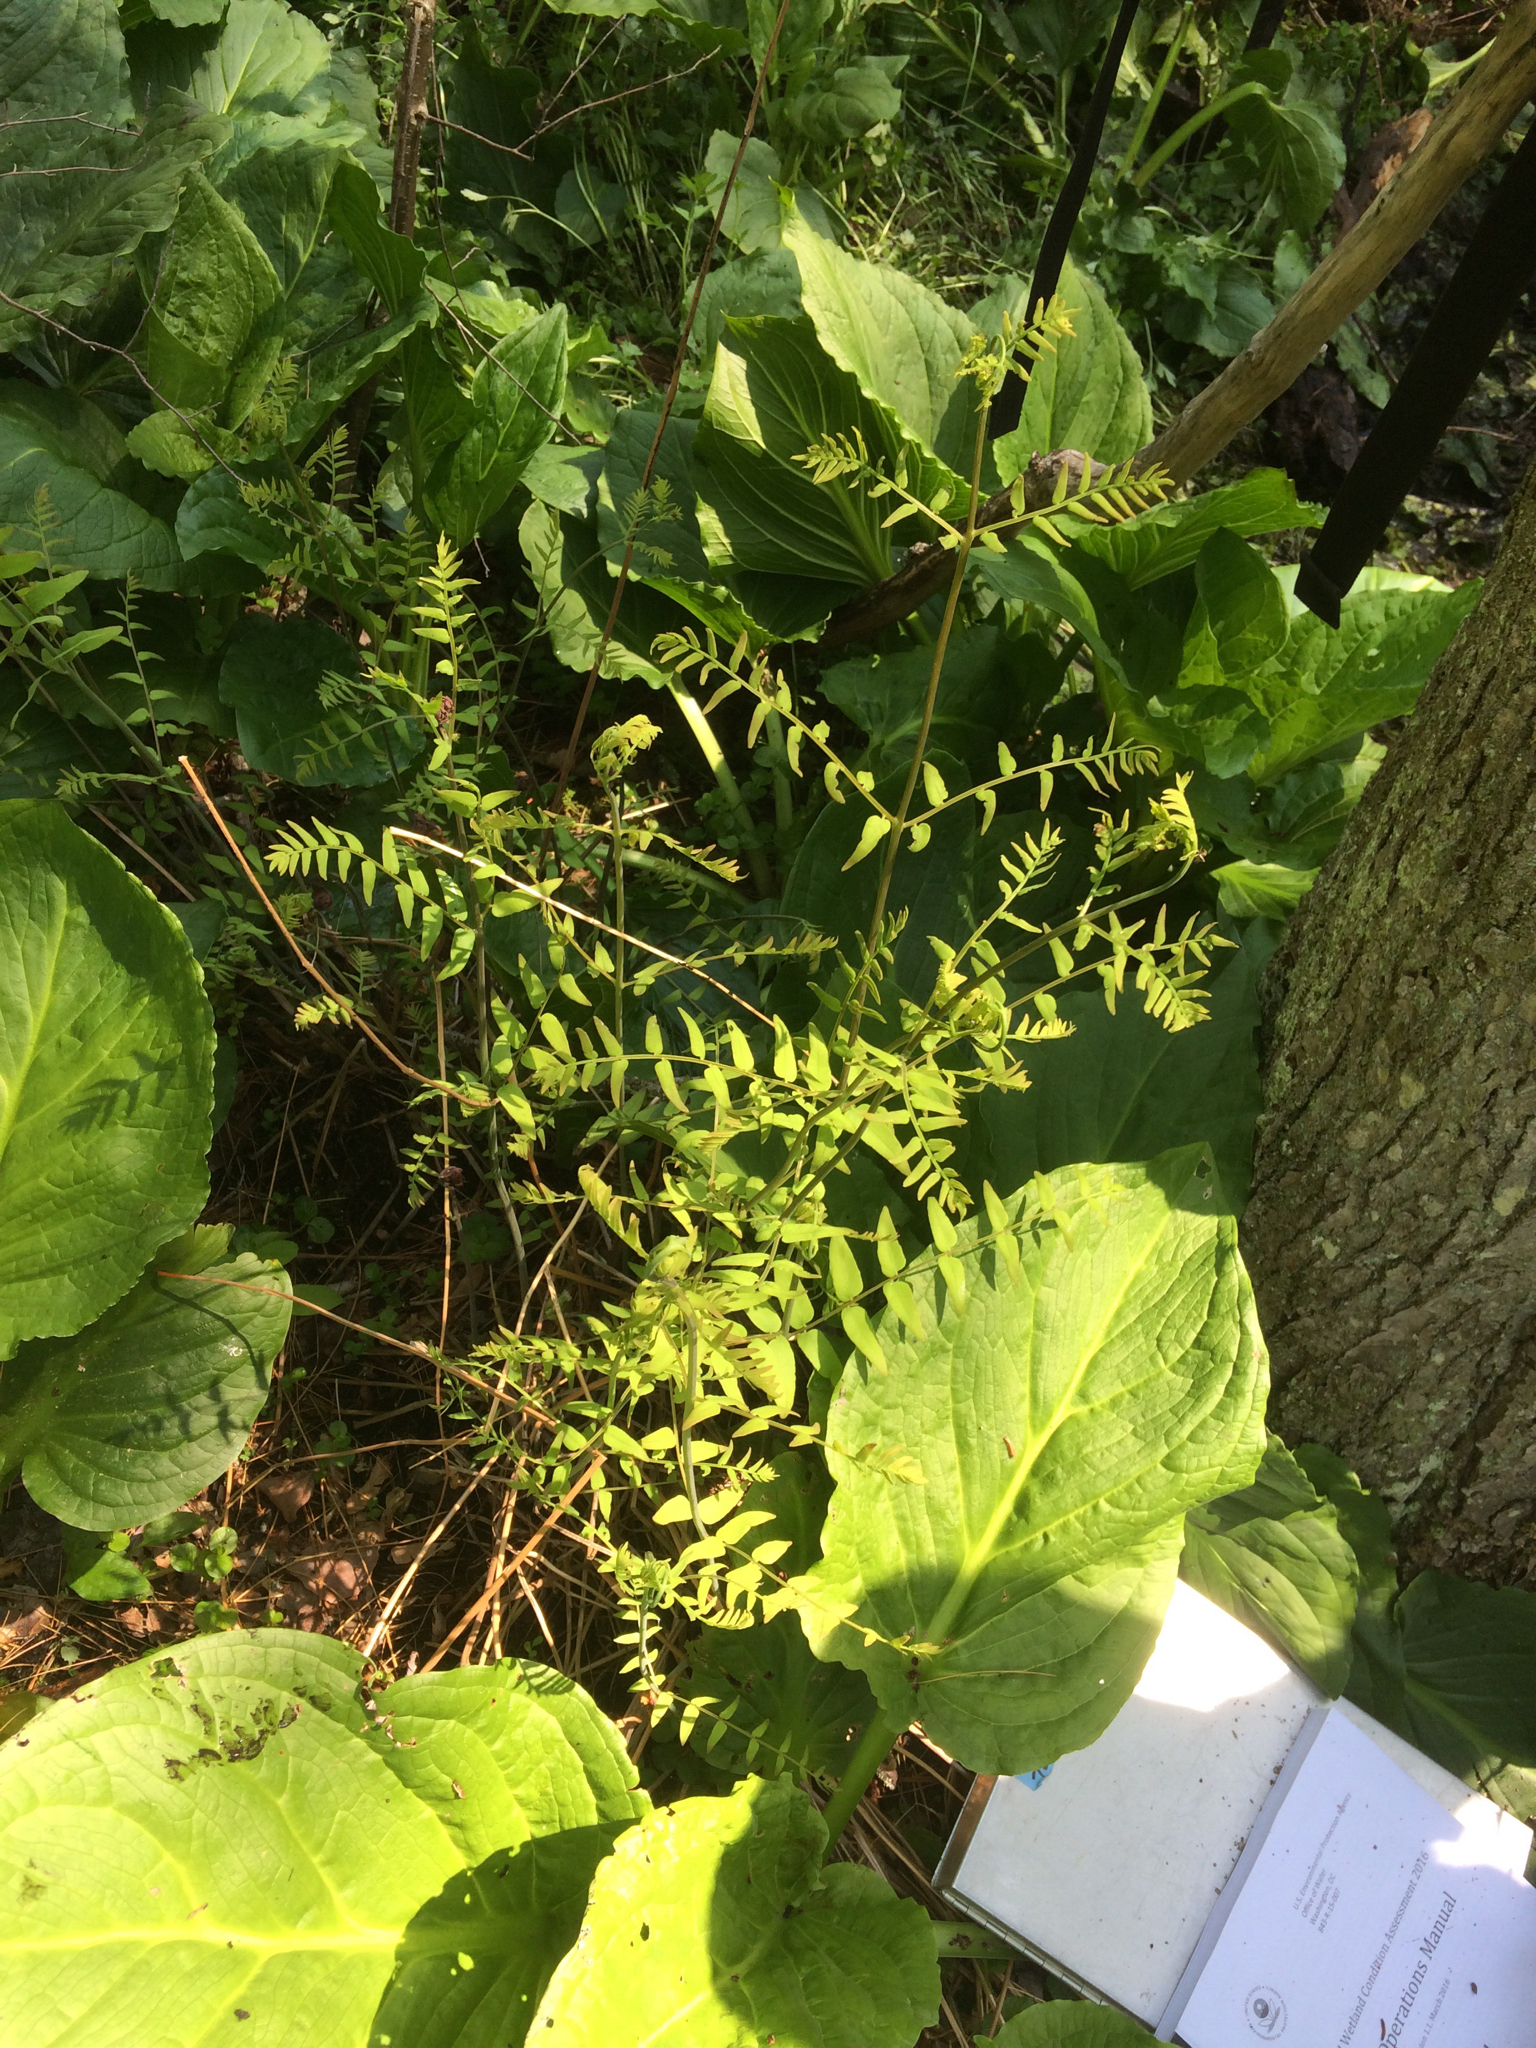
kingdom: Plantae
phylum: Tracheophyta
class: Polypodiopsida
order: Osmundales
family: Osmundaceae
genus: Osmunda
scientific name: Osmunda spectabilis
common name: American royal fern
